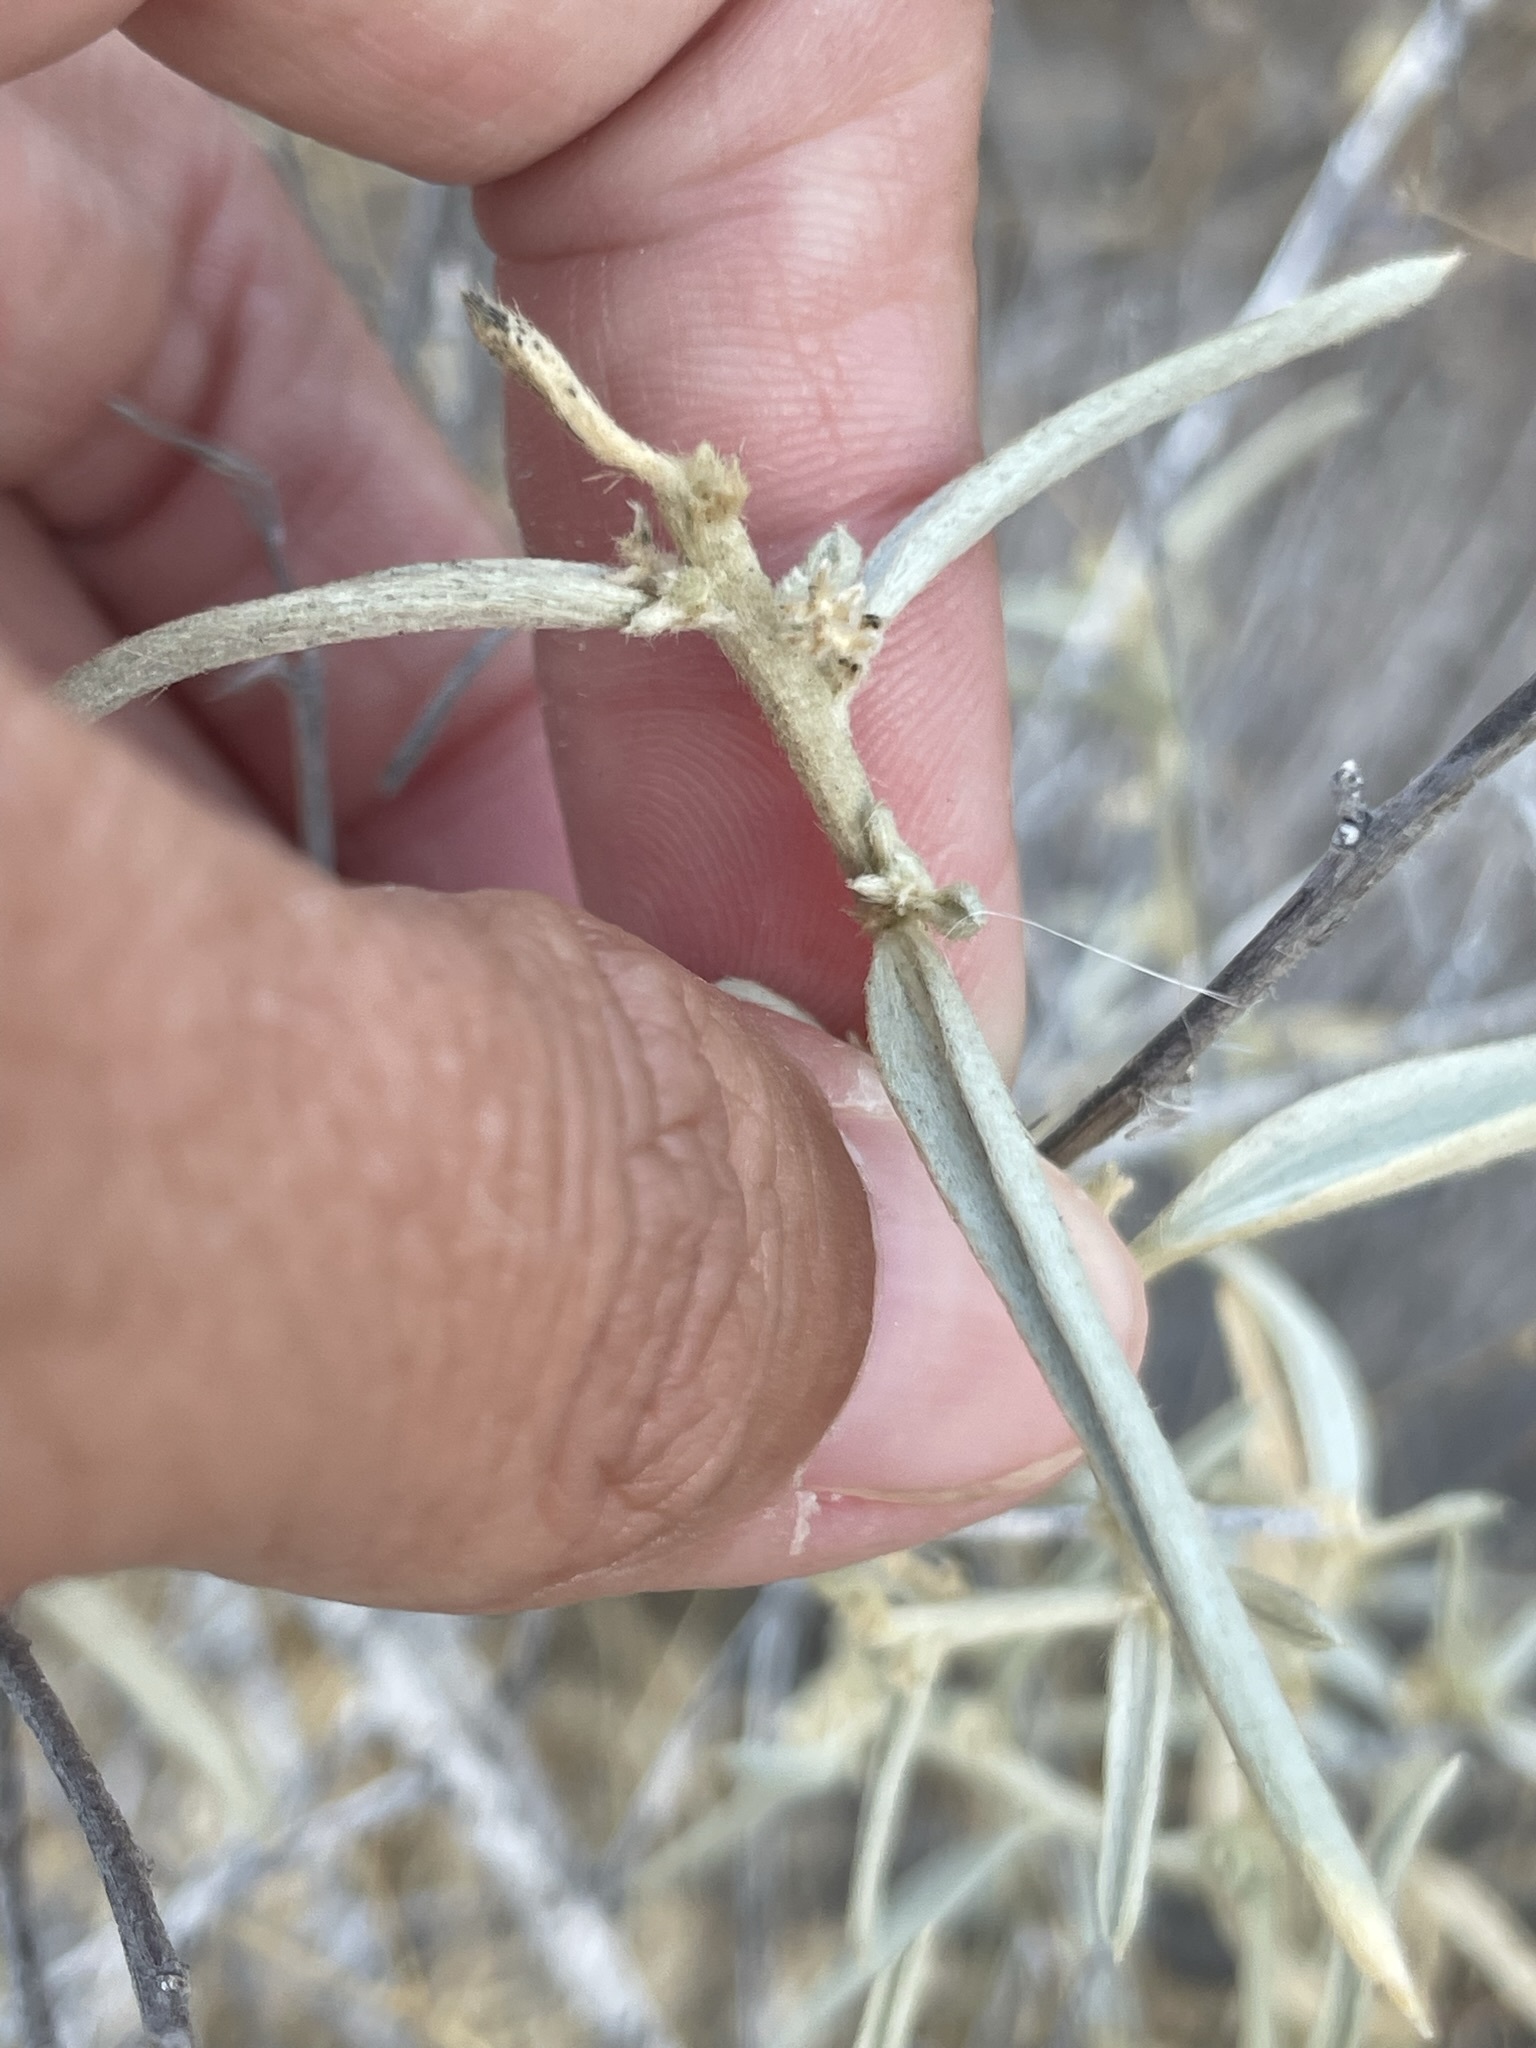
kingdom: Plantae
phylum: Tracheophyta
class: Magnoliopsida
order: Malpighiales
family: Euphorbiaceae
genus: Ditaxis
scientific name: Ditaxis lanceolata
